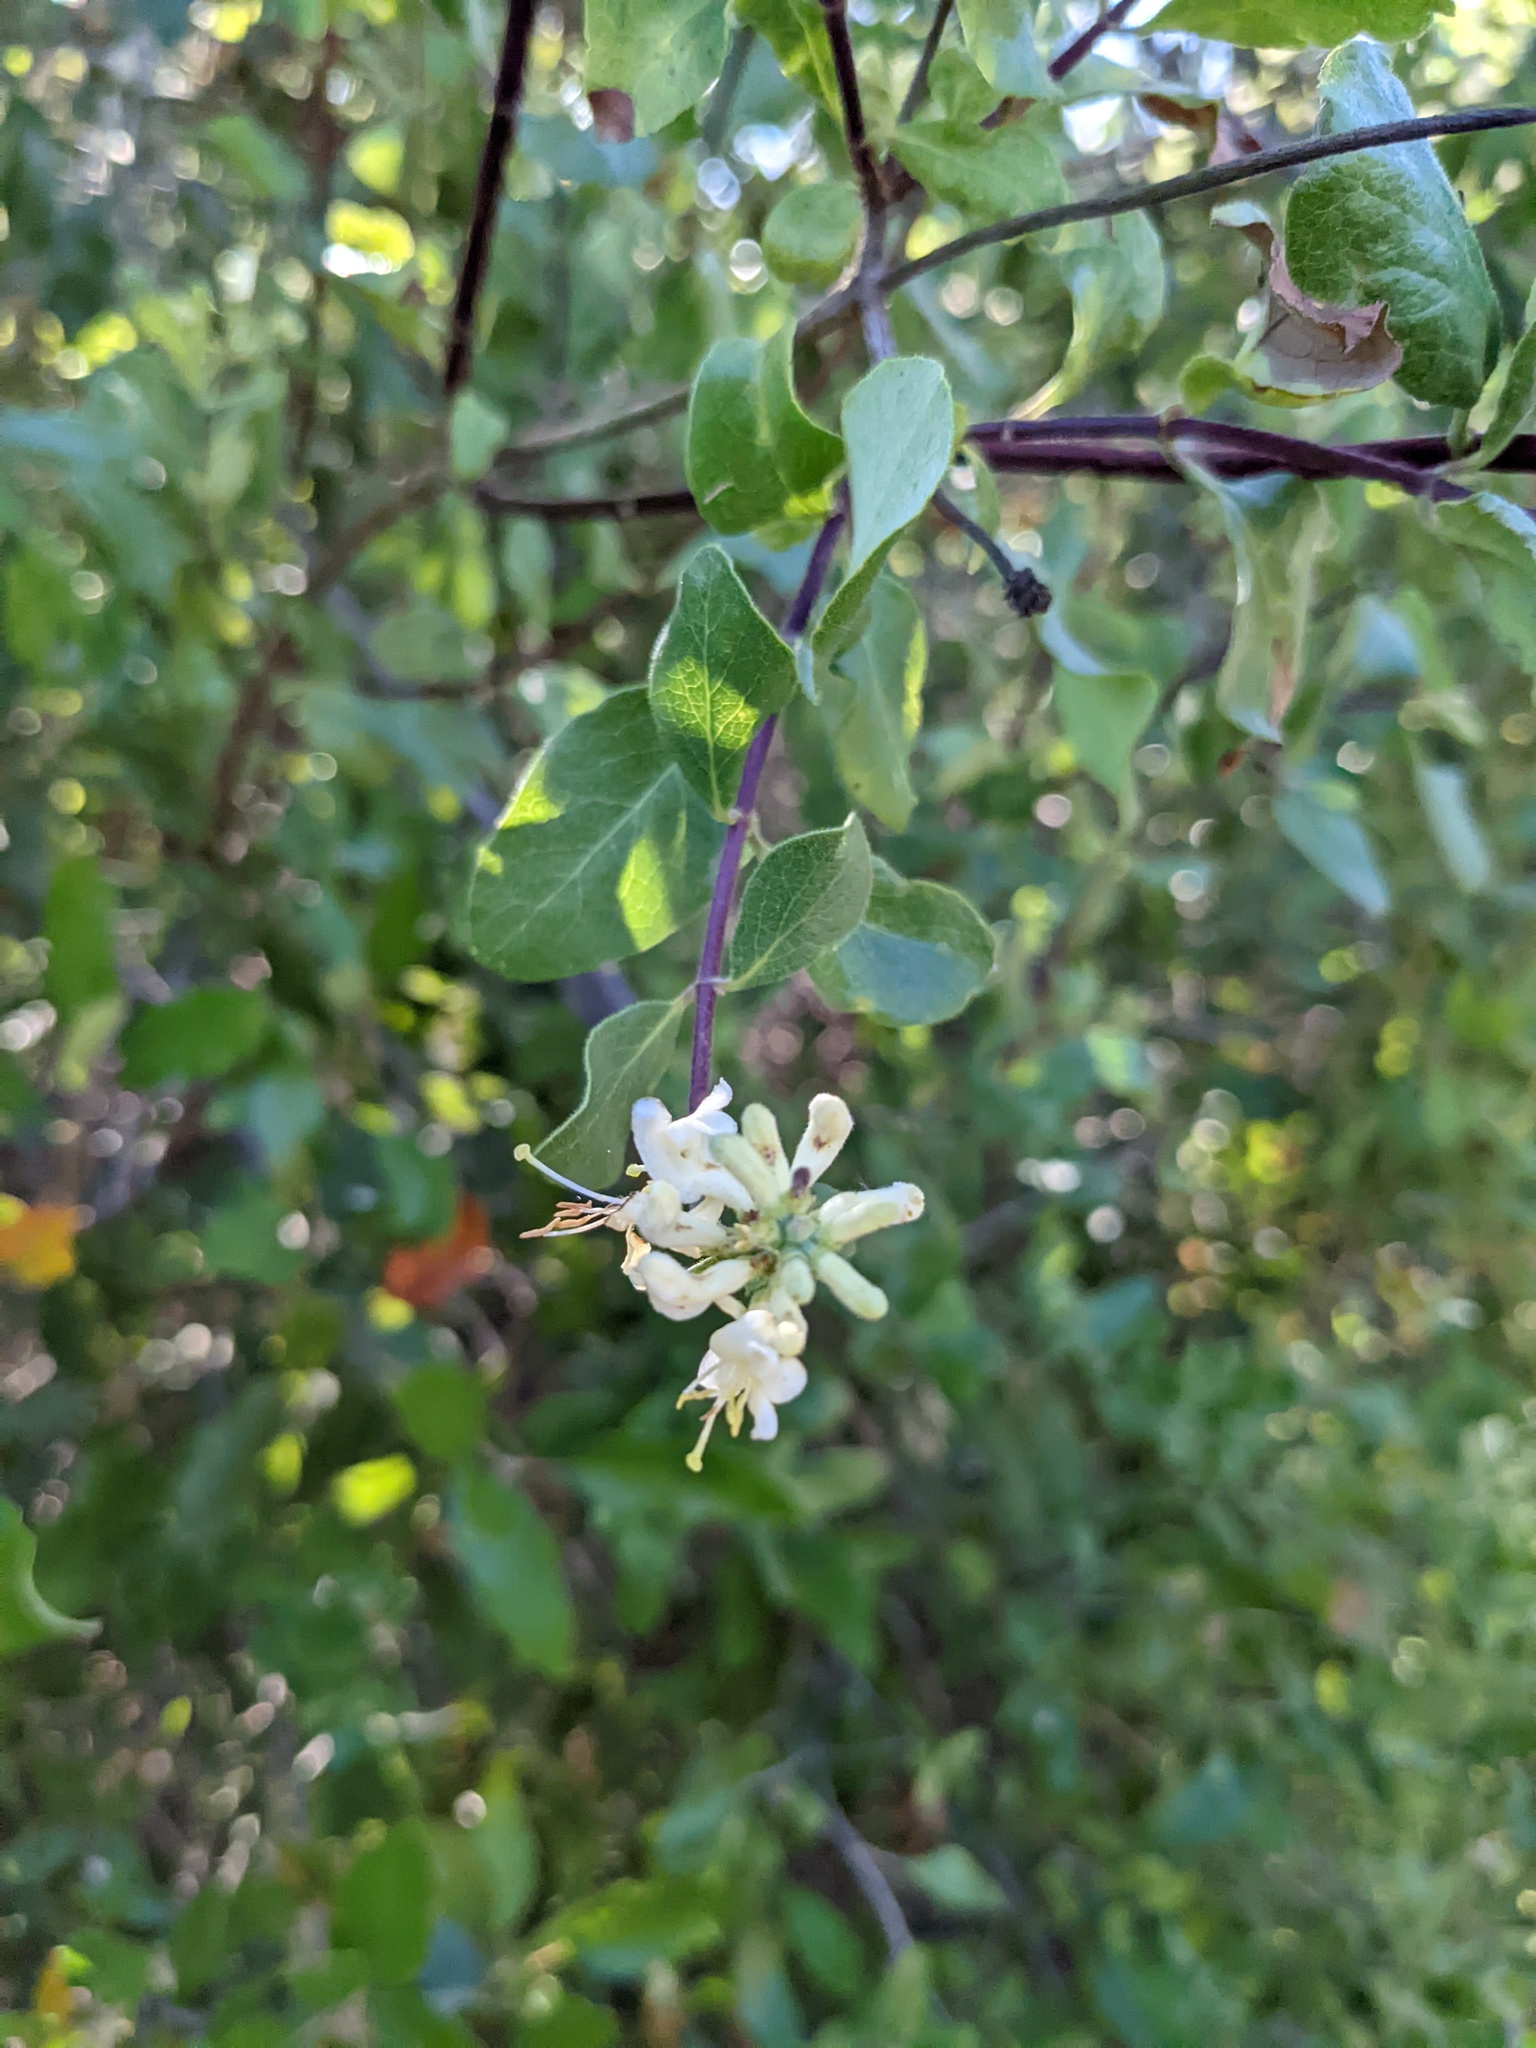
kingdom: Plantae
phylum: Tracheophyta
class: Magnoliopsida
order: Dipsacales
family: Caprifoliaceae
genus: Lonicera
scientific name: Lonicera subspicata
